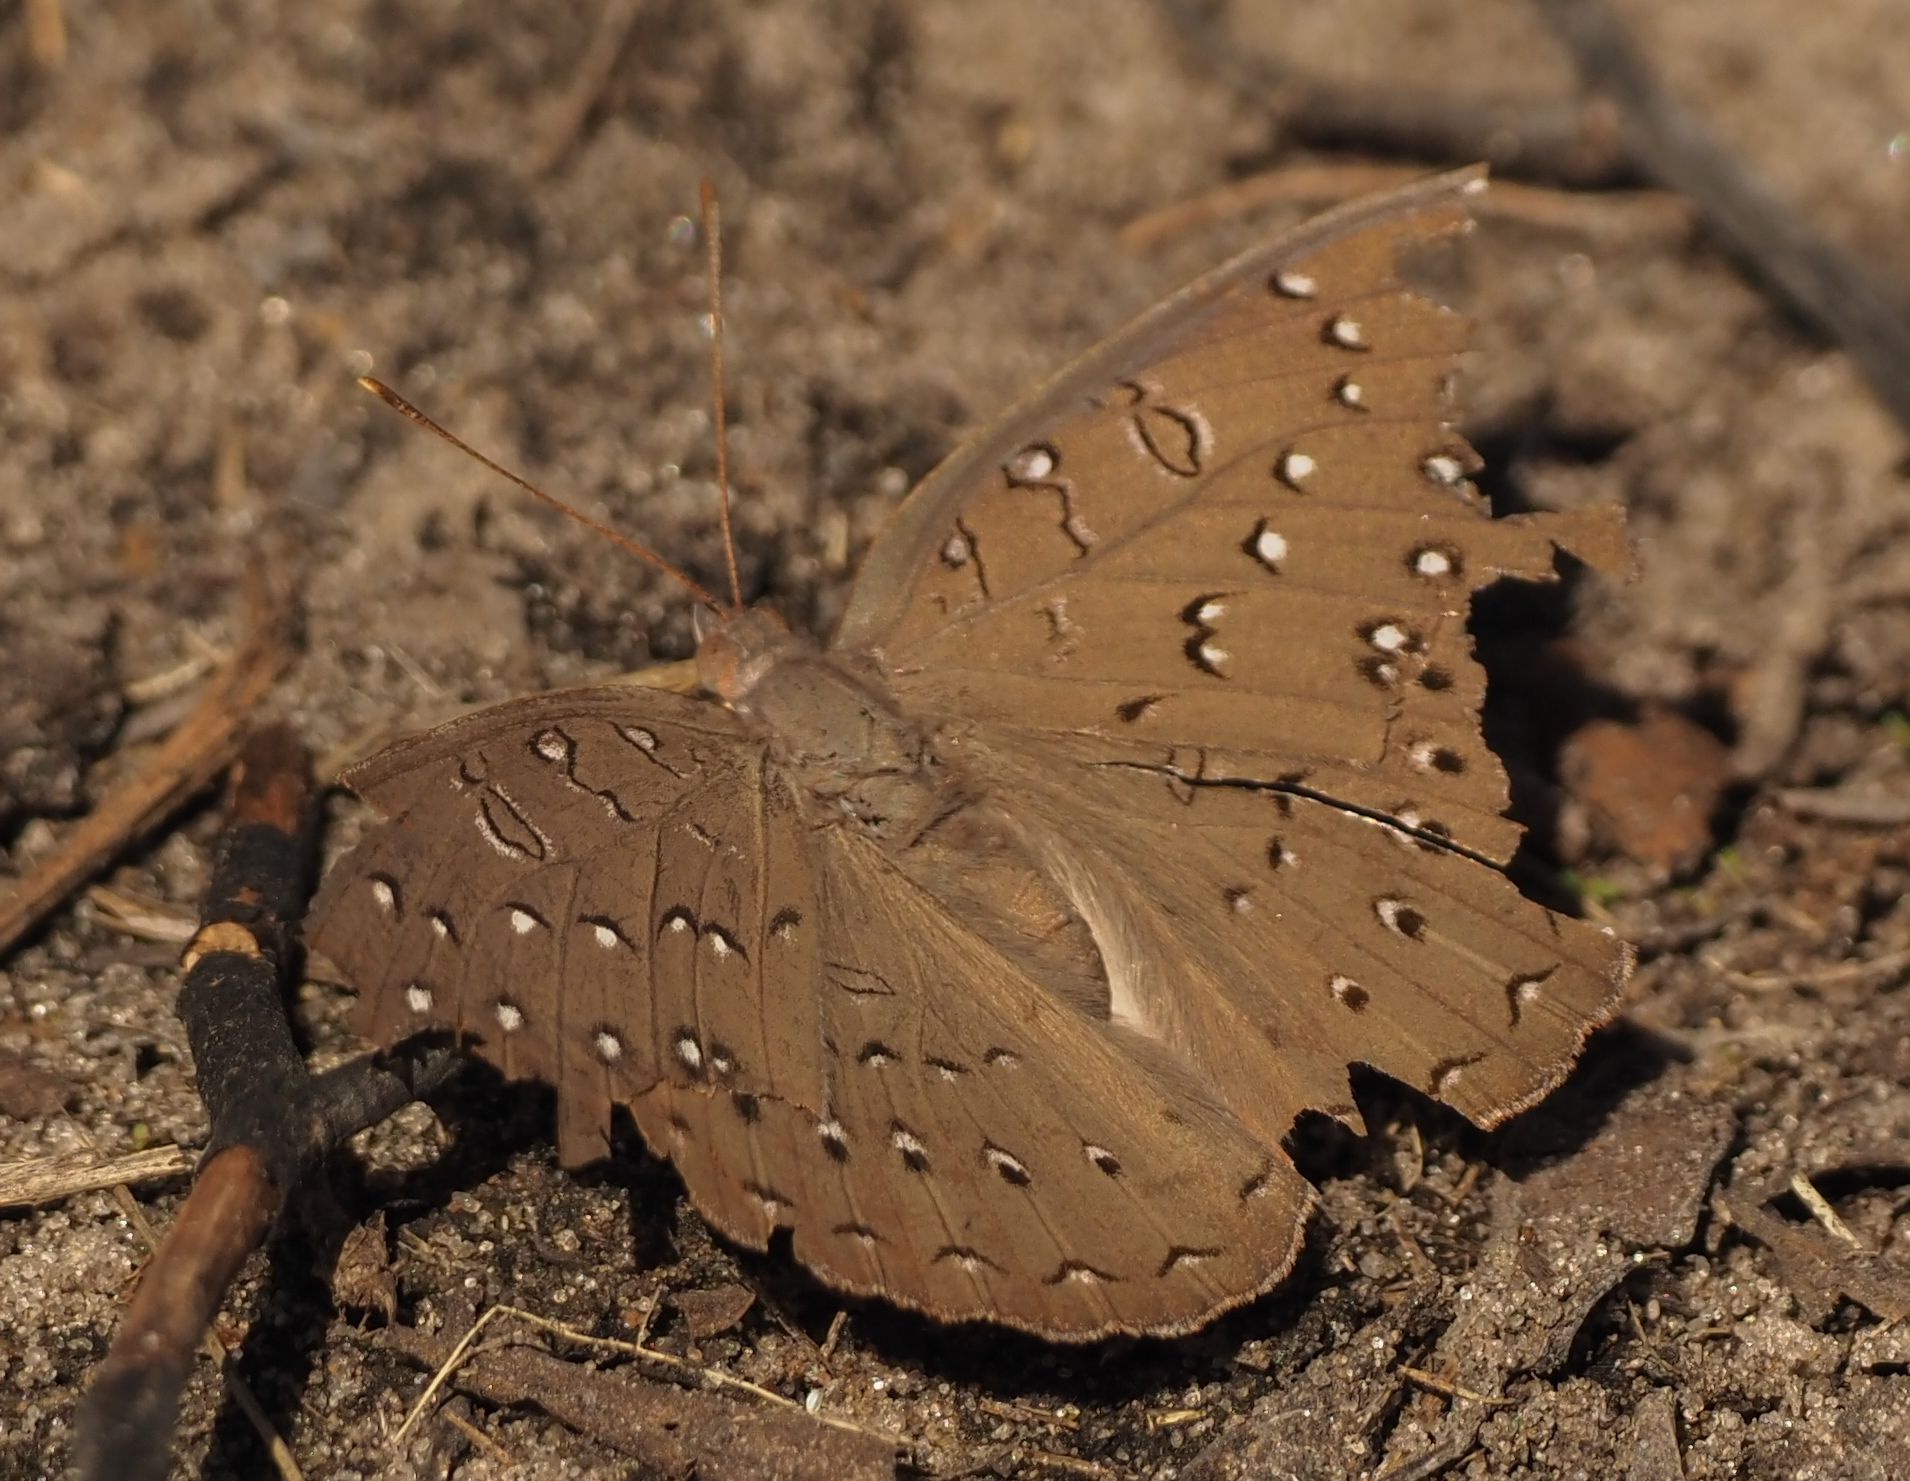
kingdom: Animalia
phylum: Arthropoda
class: Insecta
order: Lepidoptera
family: Nymphalidae
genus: Hamanumida
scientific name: Hamanumida daedalus
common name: Guinea-fowl butterfly
